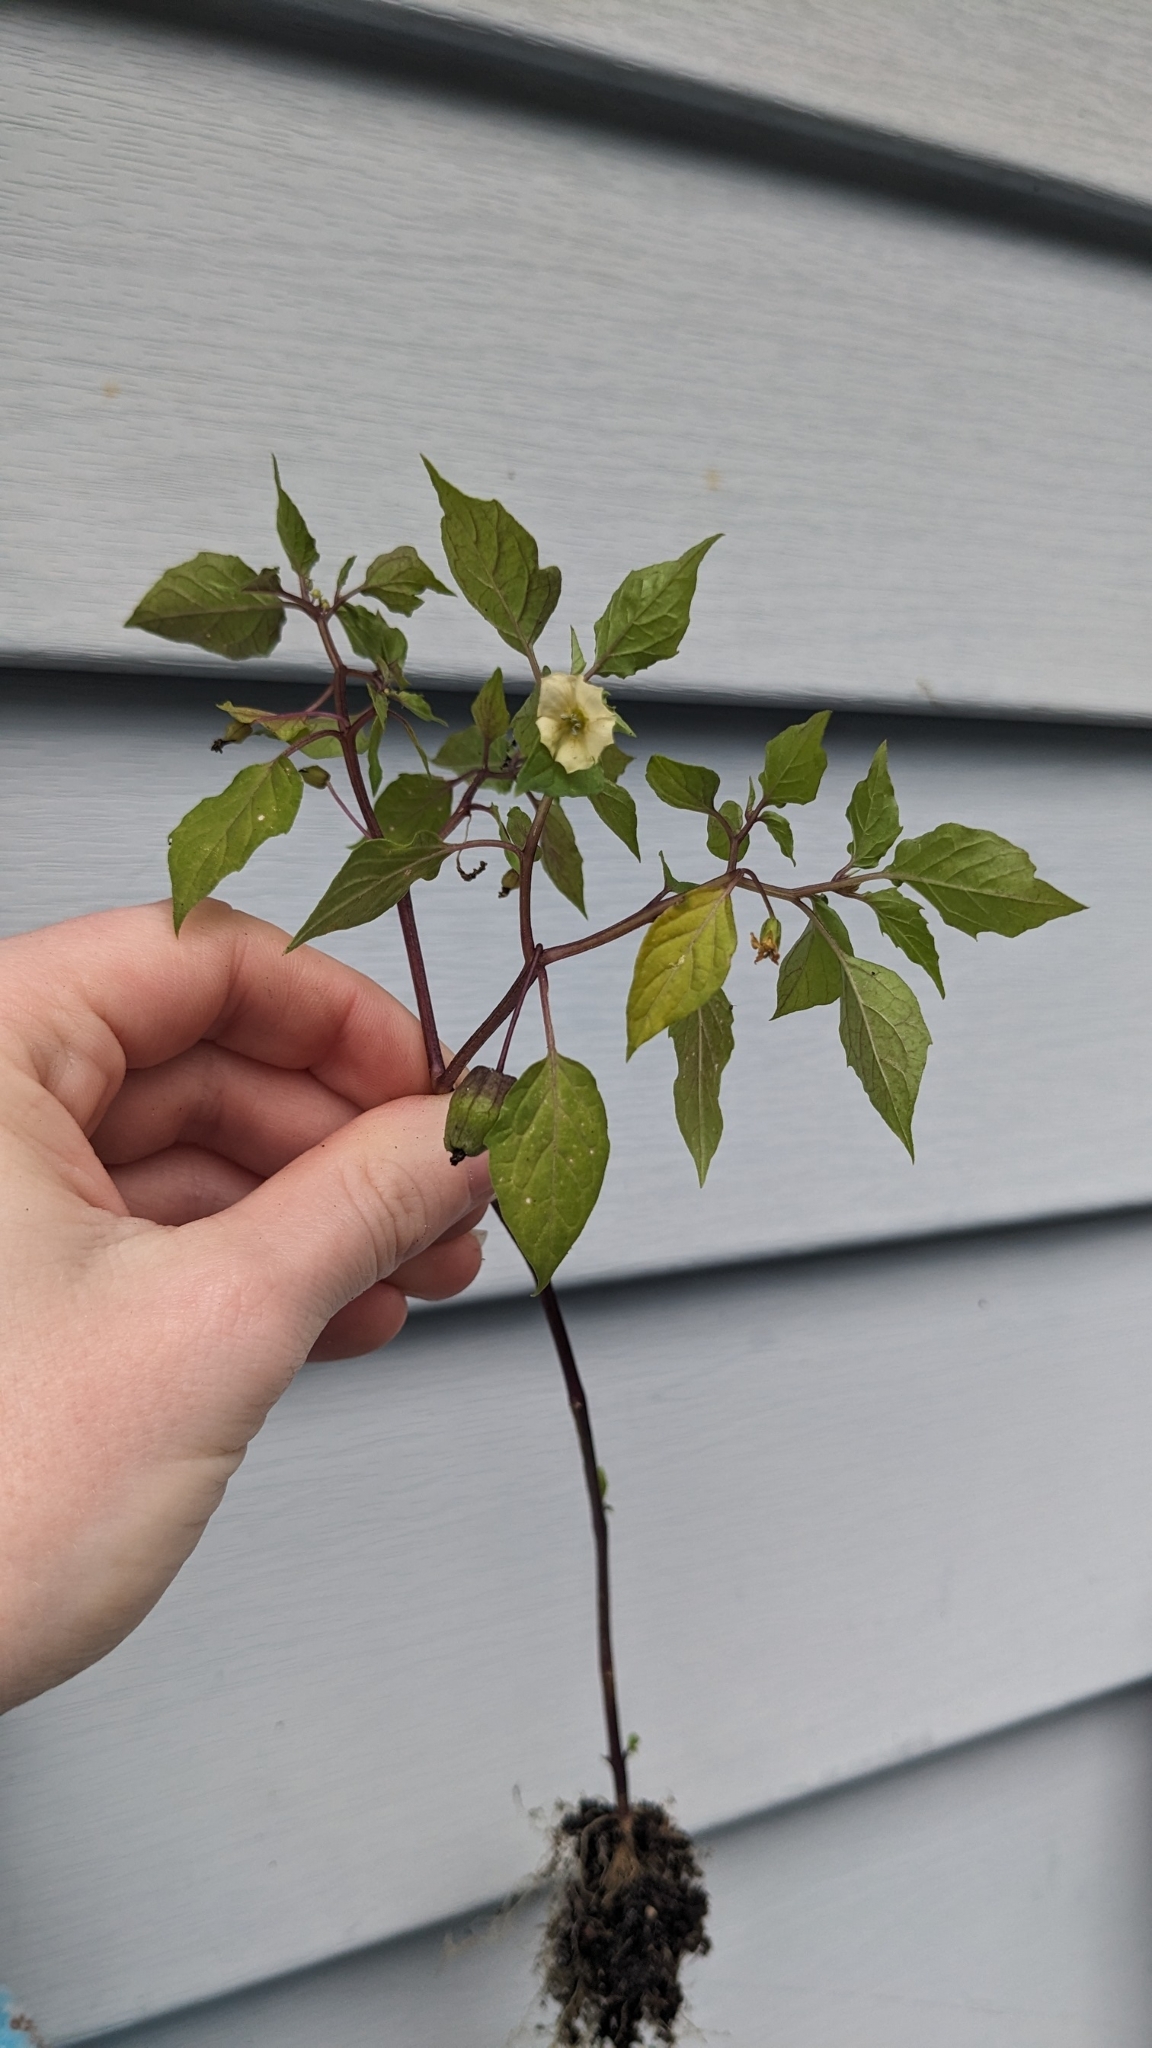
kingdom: Plantae
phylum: Tracheophyta
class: Magnoliopsida
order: Solanales
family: Solanaceae
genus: Physalis
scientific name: Physalis angulata
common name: Angular winter-cherry
